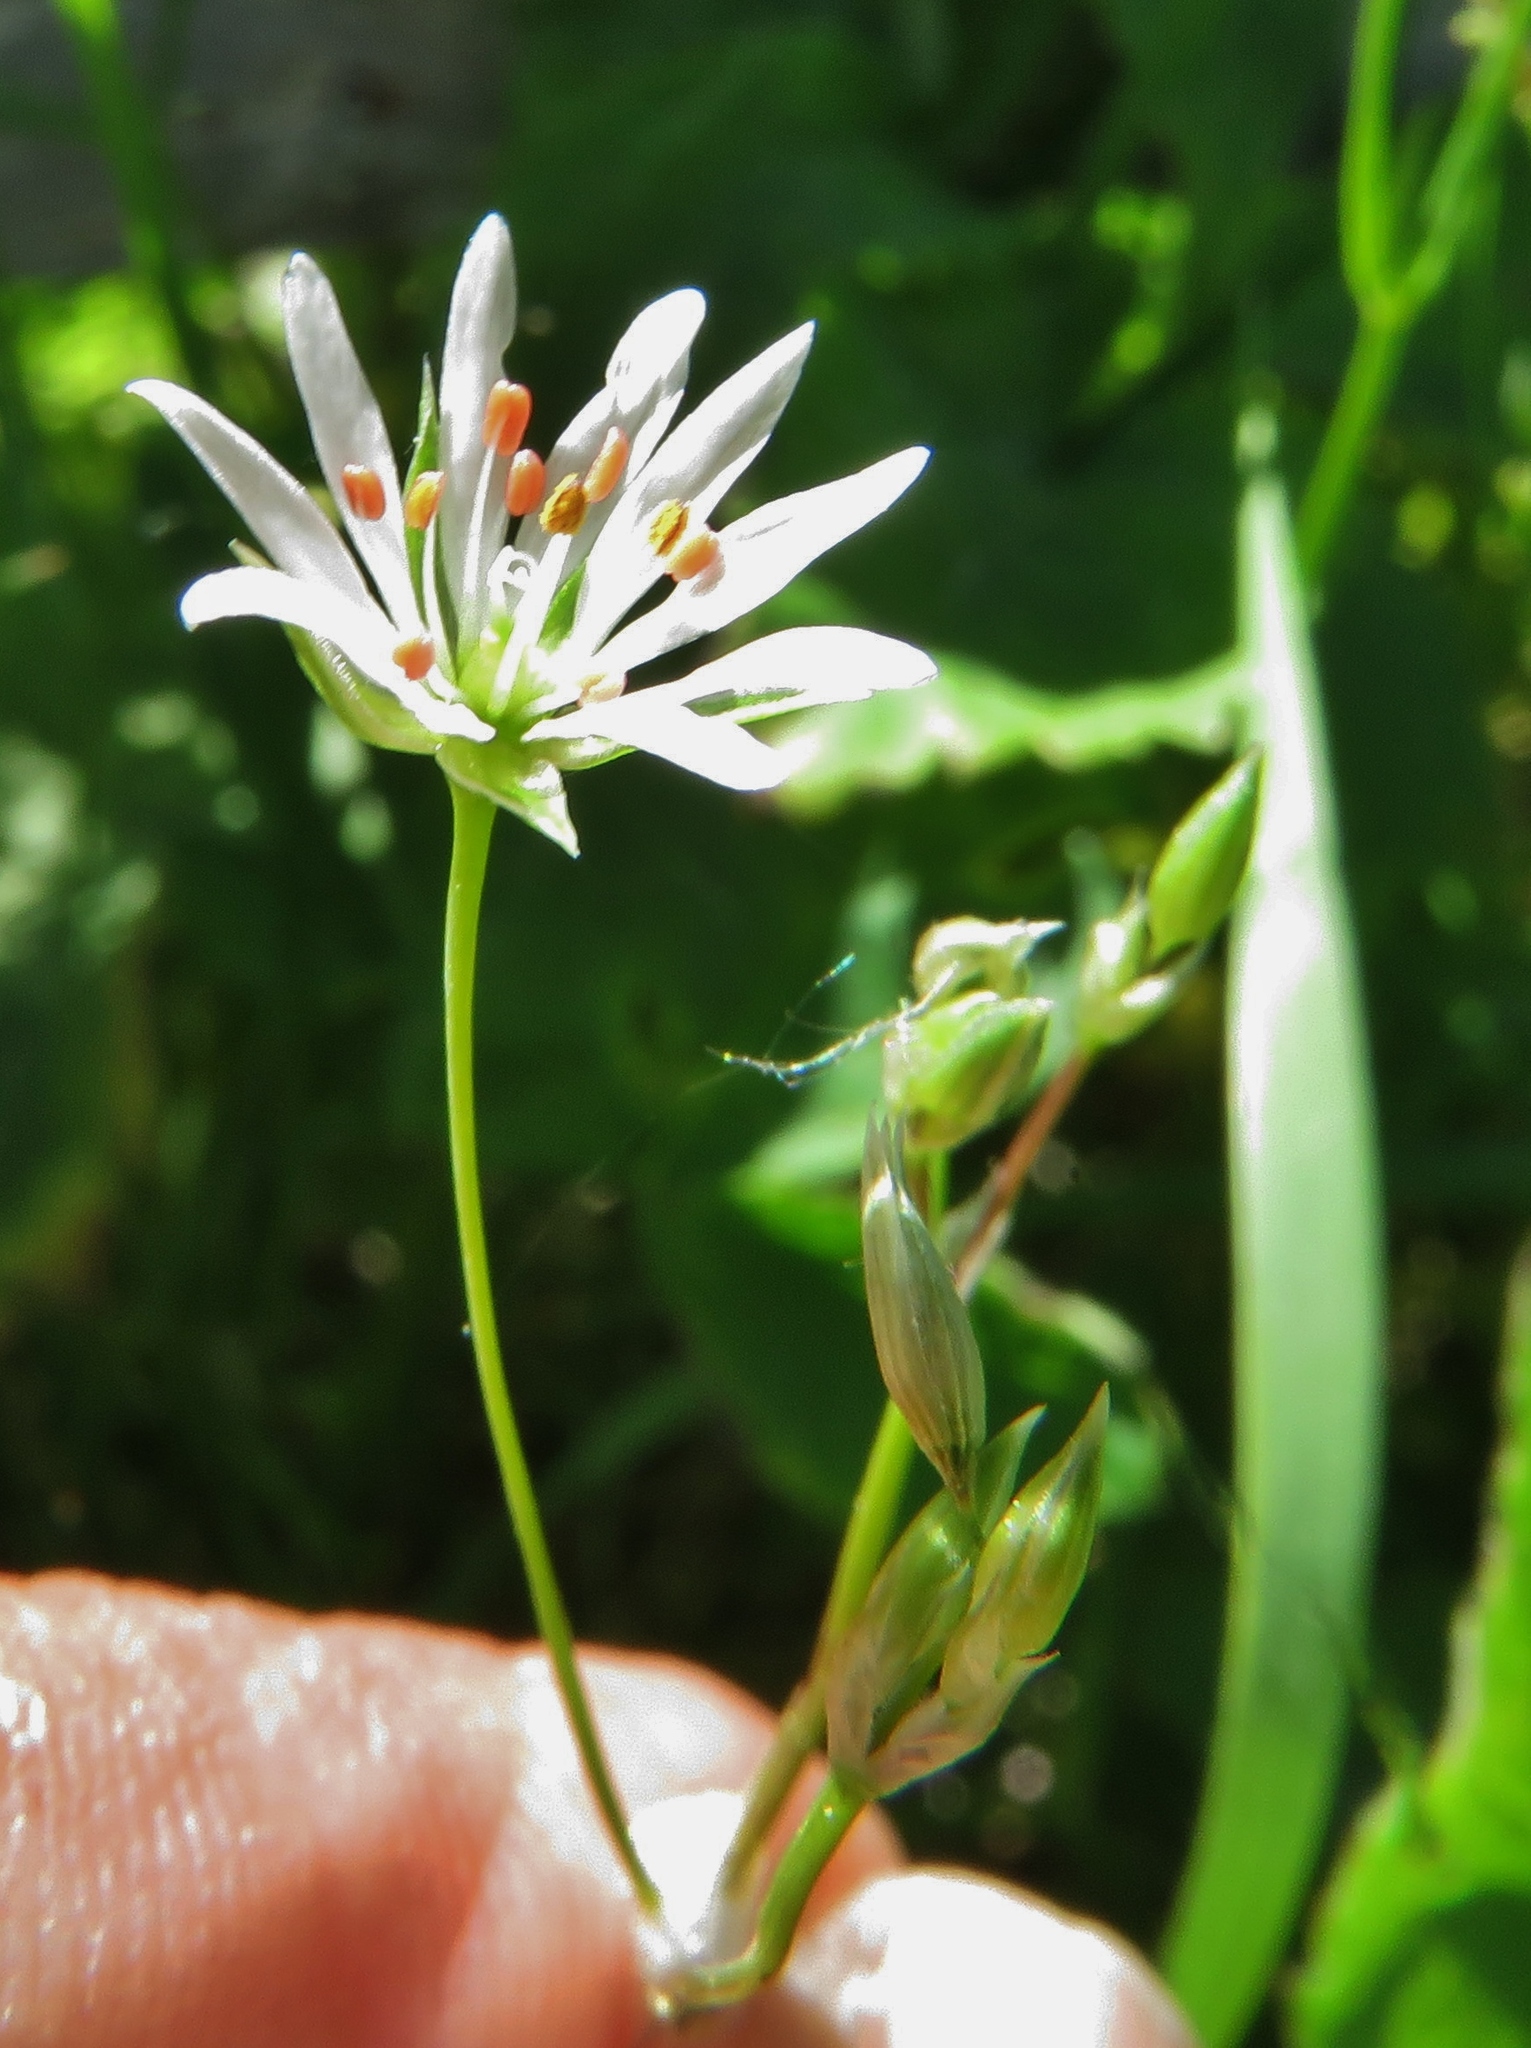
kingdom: Plantae
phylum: Tracheophyta
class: Magnoliopsida
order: Caryophyllales
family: Caryophyllaceae
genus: Stellaria
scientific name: Stellaria graminea
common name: Grass-like starwort
